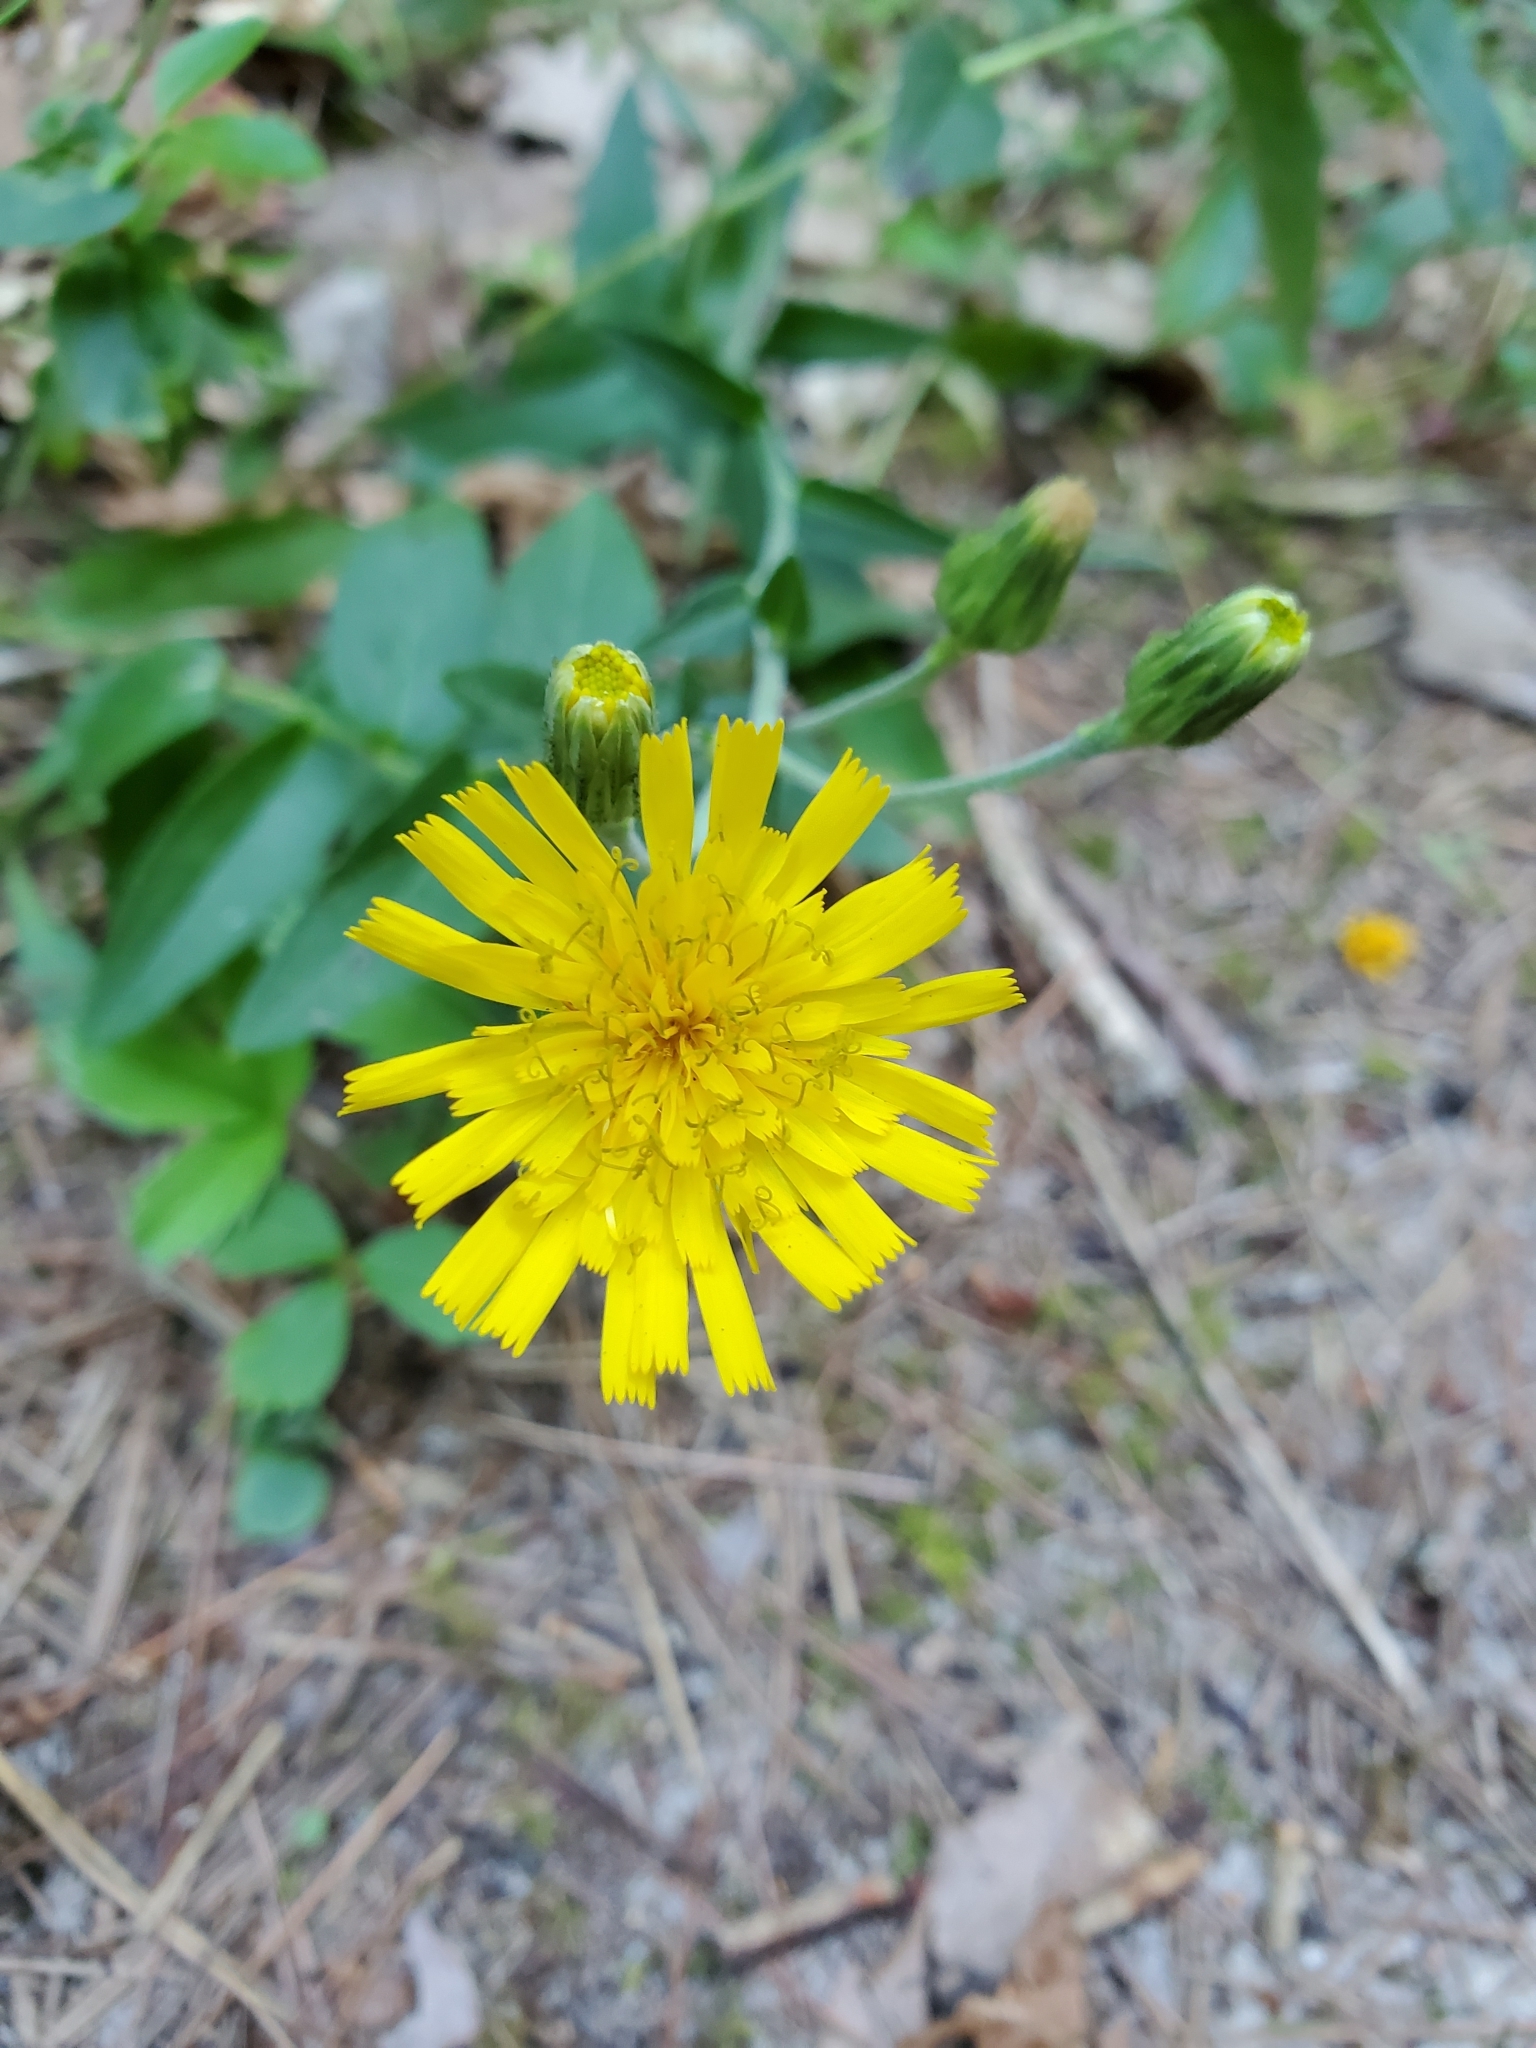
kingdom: Plantae
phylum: Tracheophyta
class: Magnoliopsida
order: Asterales
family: Asteraceae
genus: Hieracium
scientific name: Hieracium umbellatum
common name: Northern hawkweed
